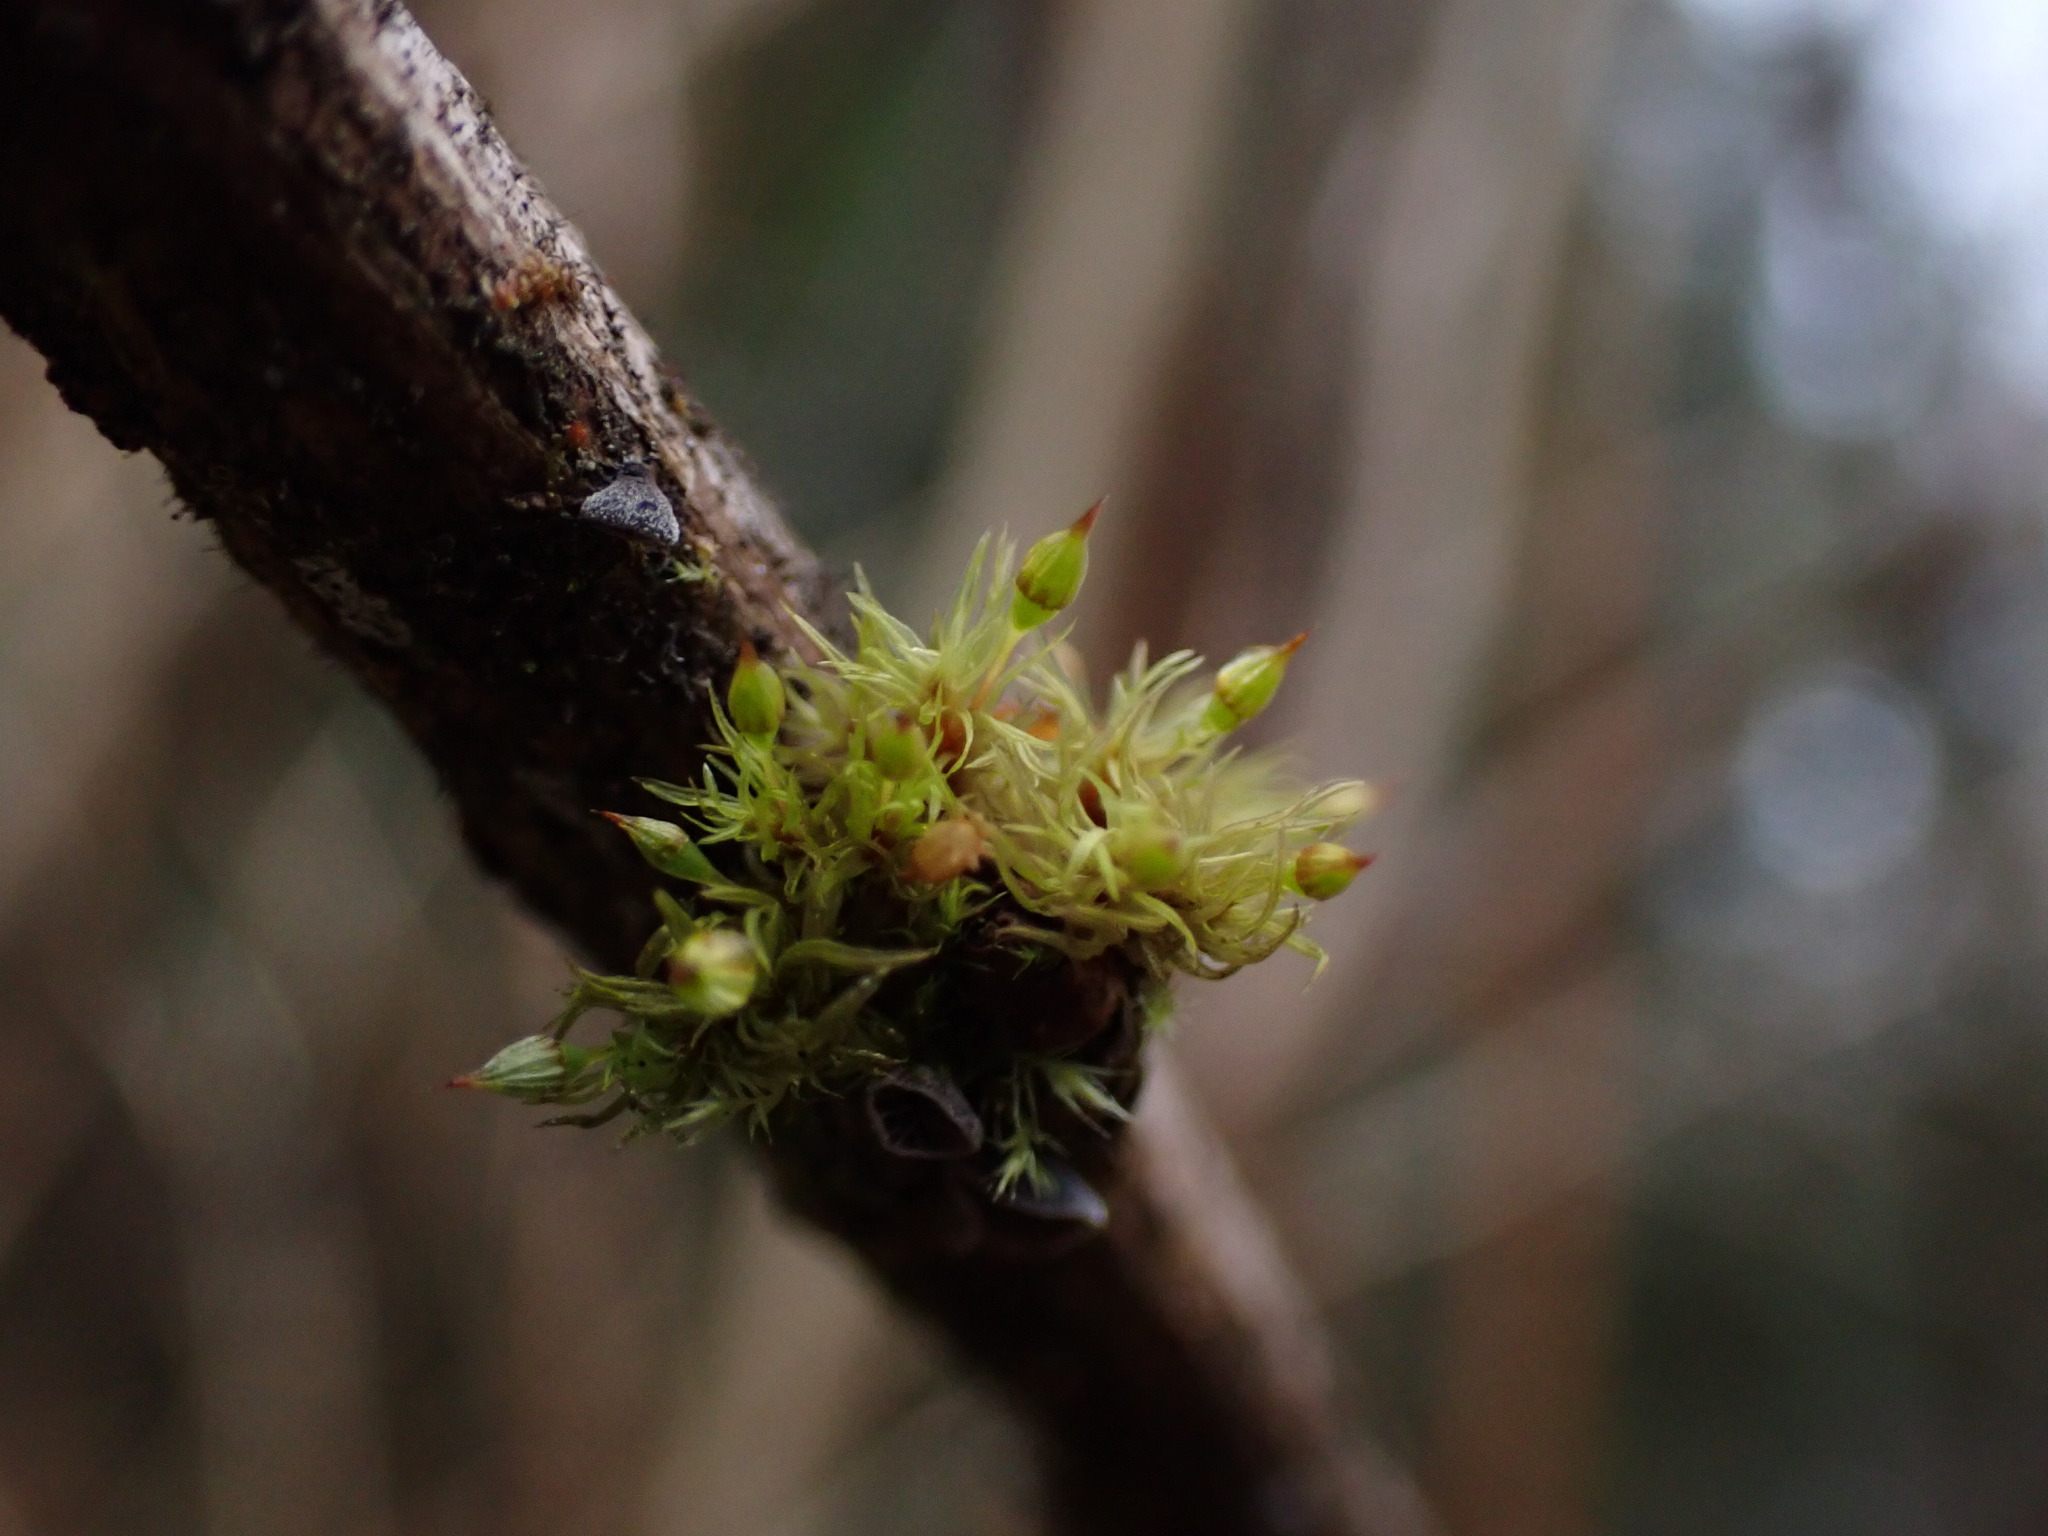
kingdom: Plantae
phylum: Bryophyta
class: Bryopsida
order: Orthotrichales
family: Orthotrichaceae
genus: Orthotrichum
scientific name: Orthotrichum pulchellum
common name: Elegant bristle-moss
